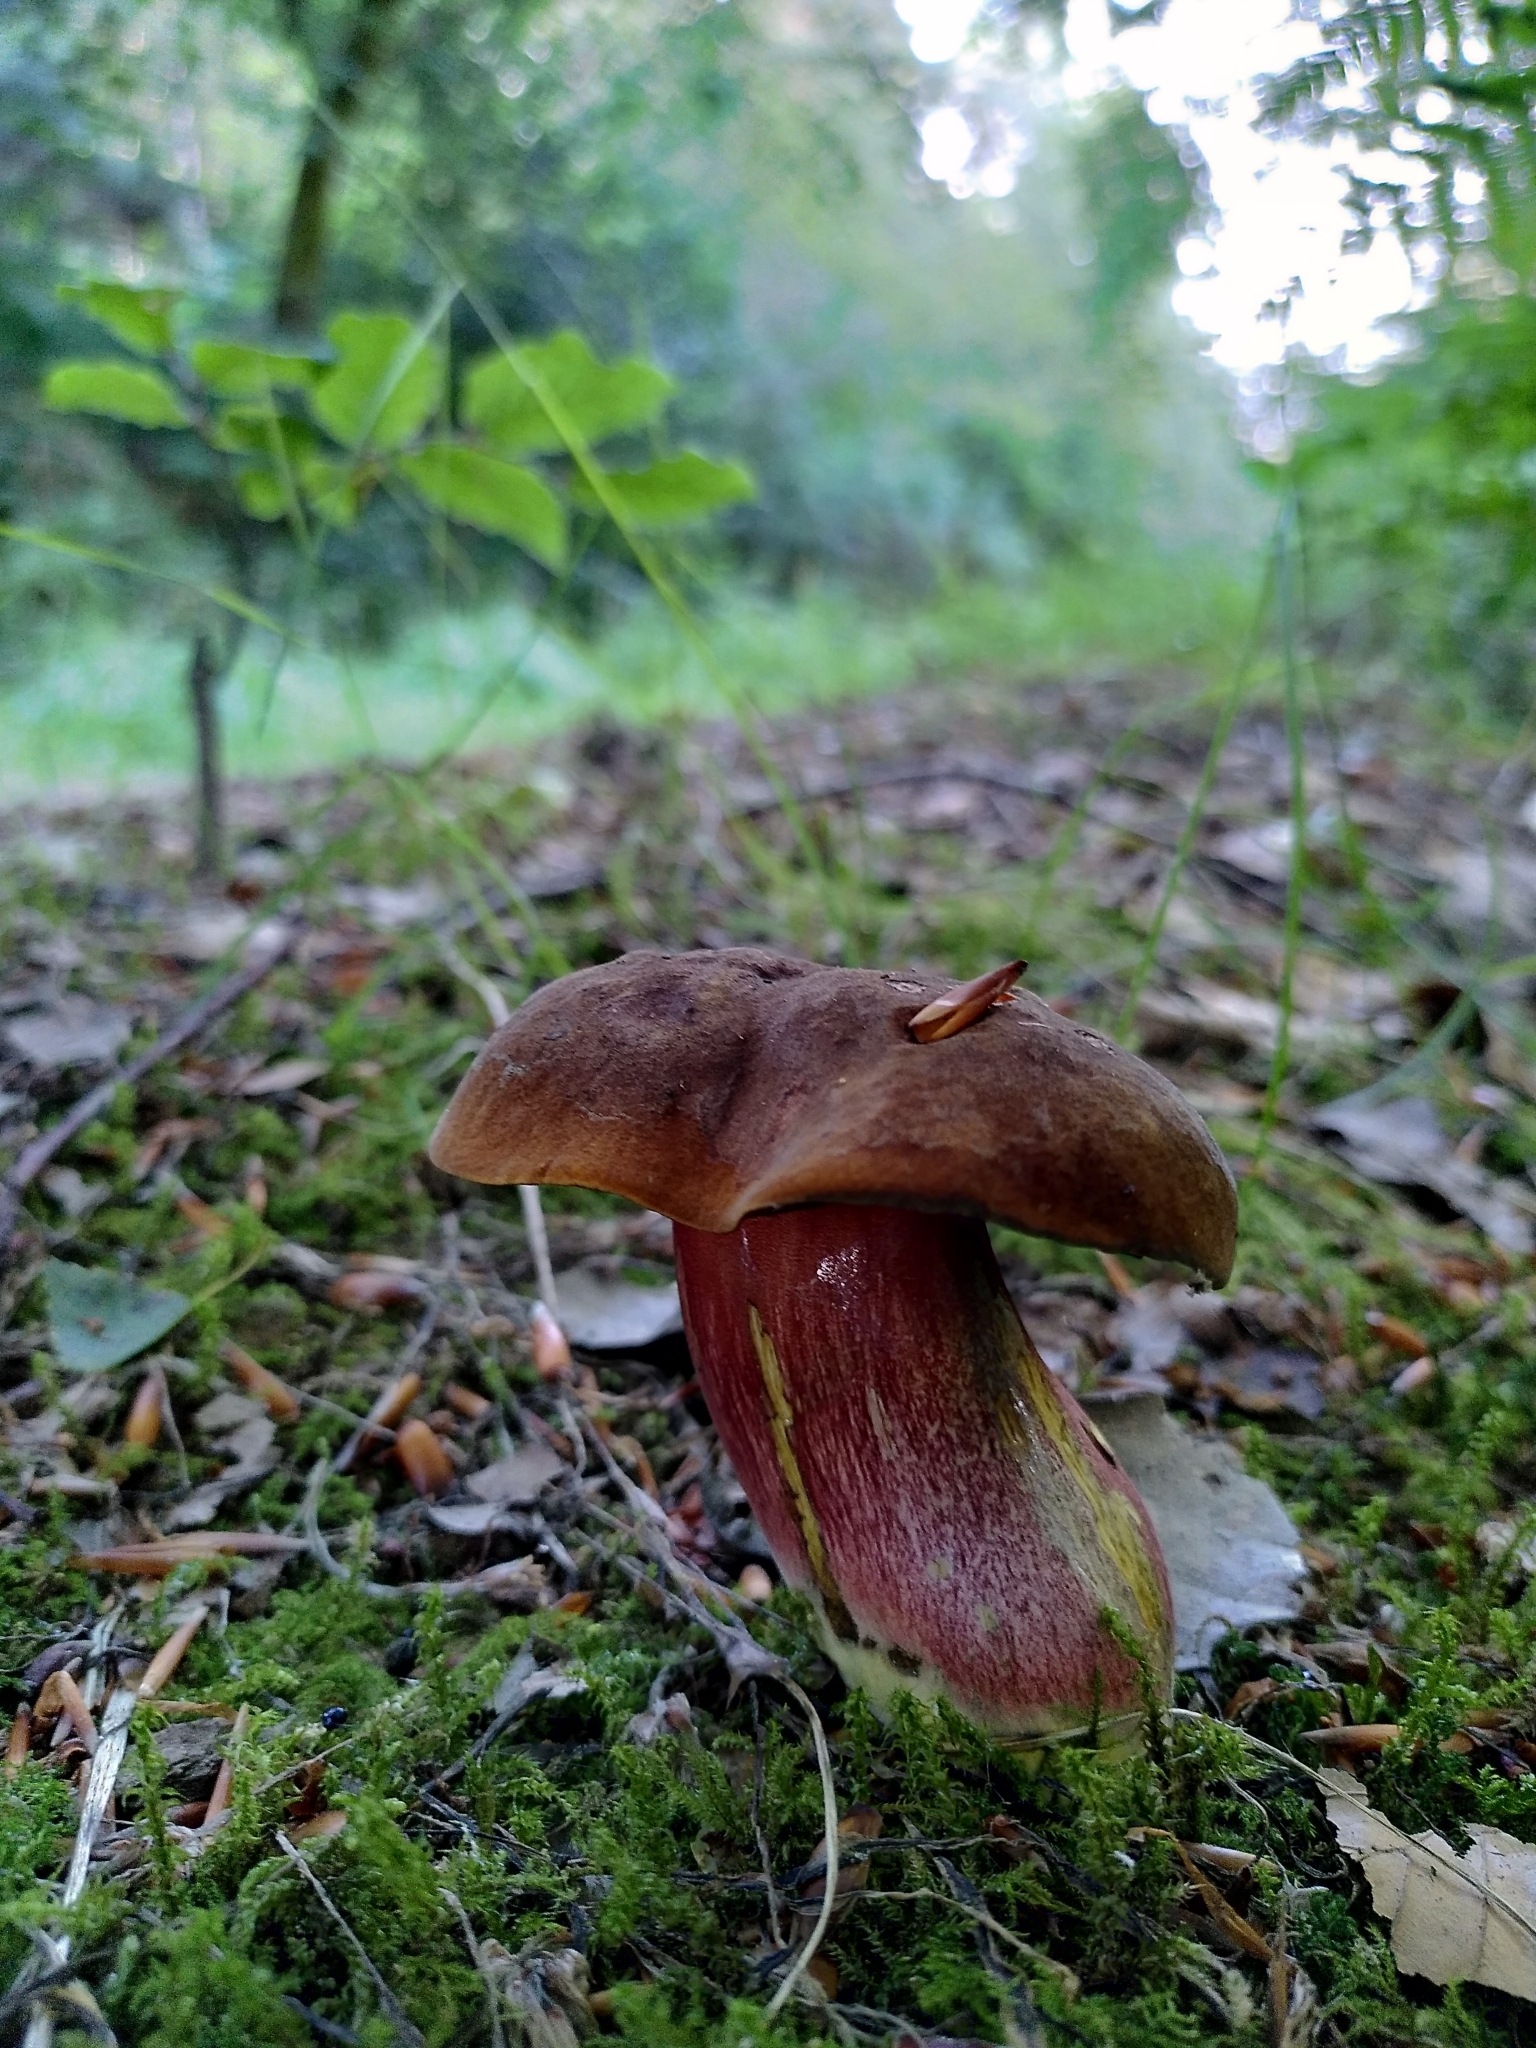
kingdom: Fungi
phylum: Basidiomycota
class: Agaricomycetes
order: Boletales
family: Boletaceae
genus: Neoboletus
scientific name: Neoboletus erythropus
